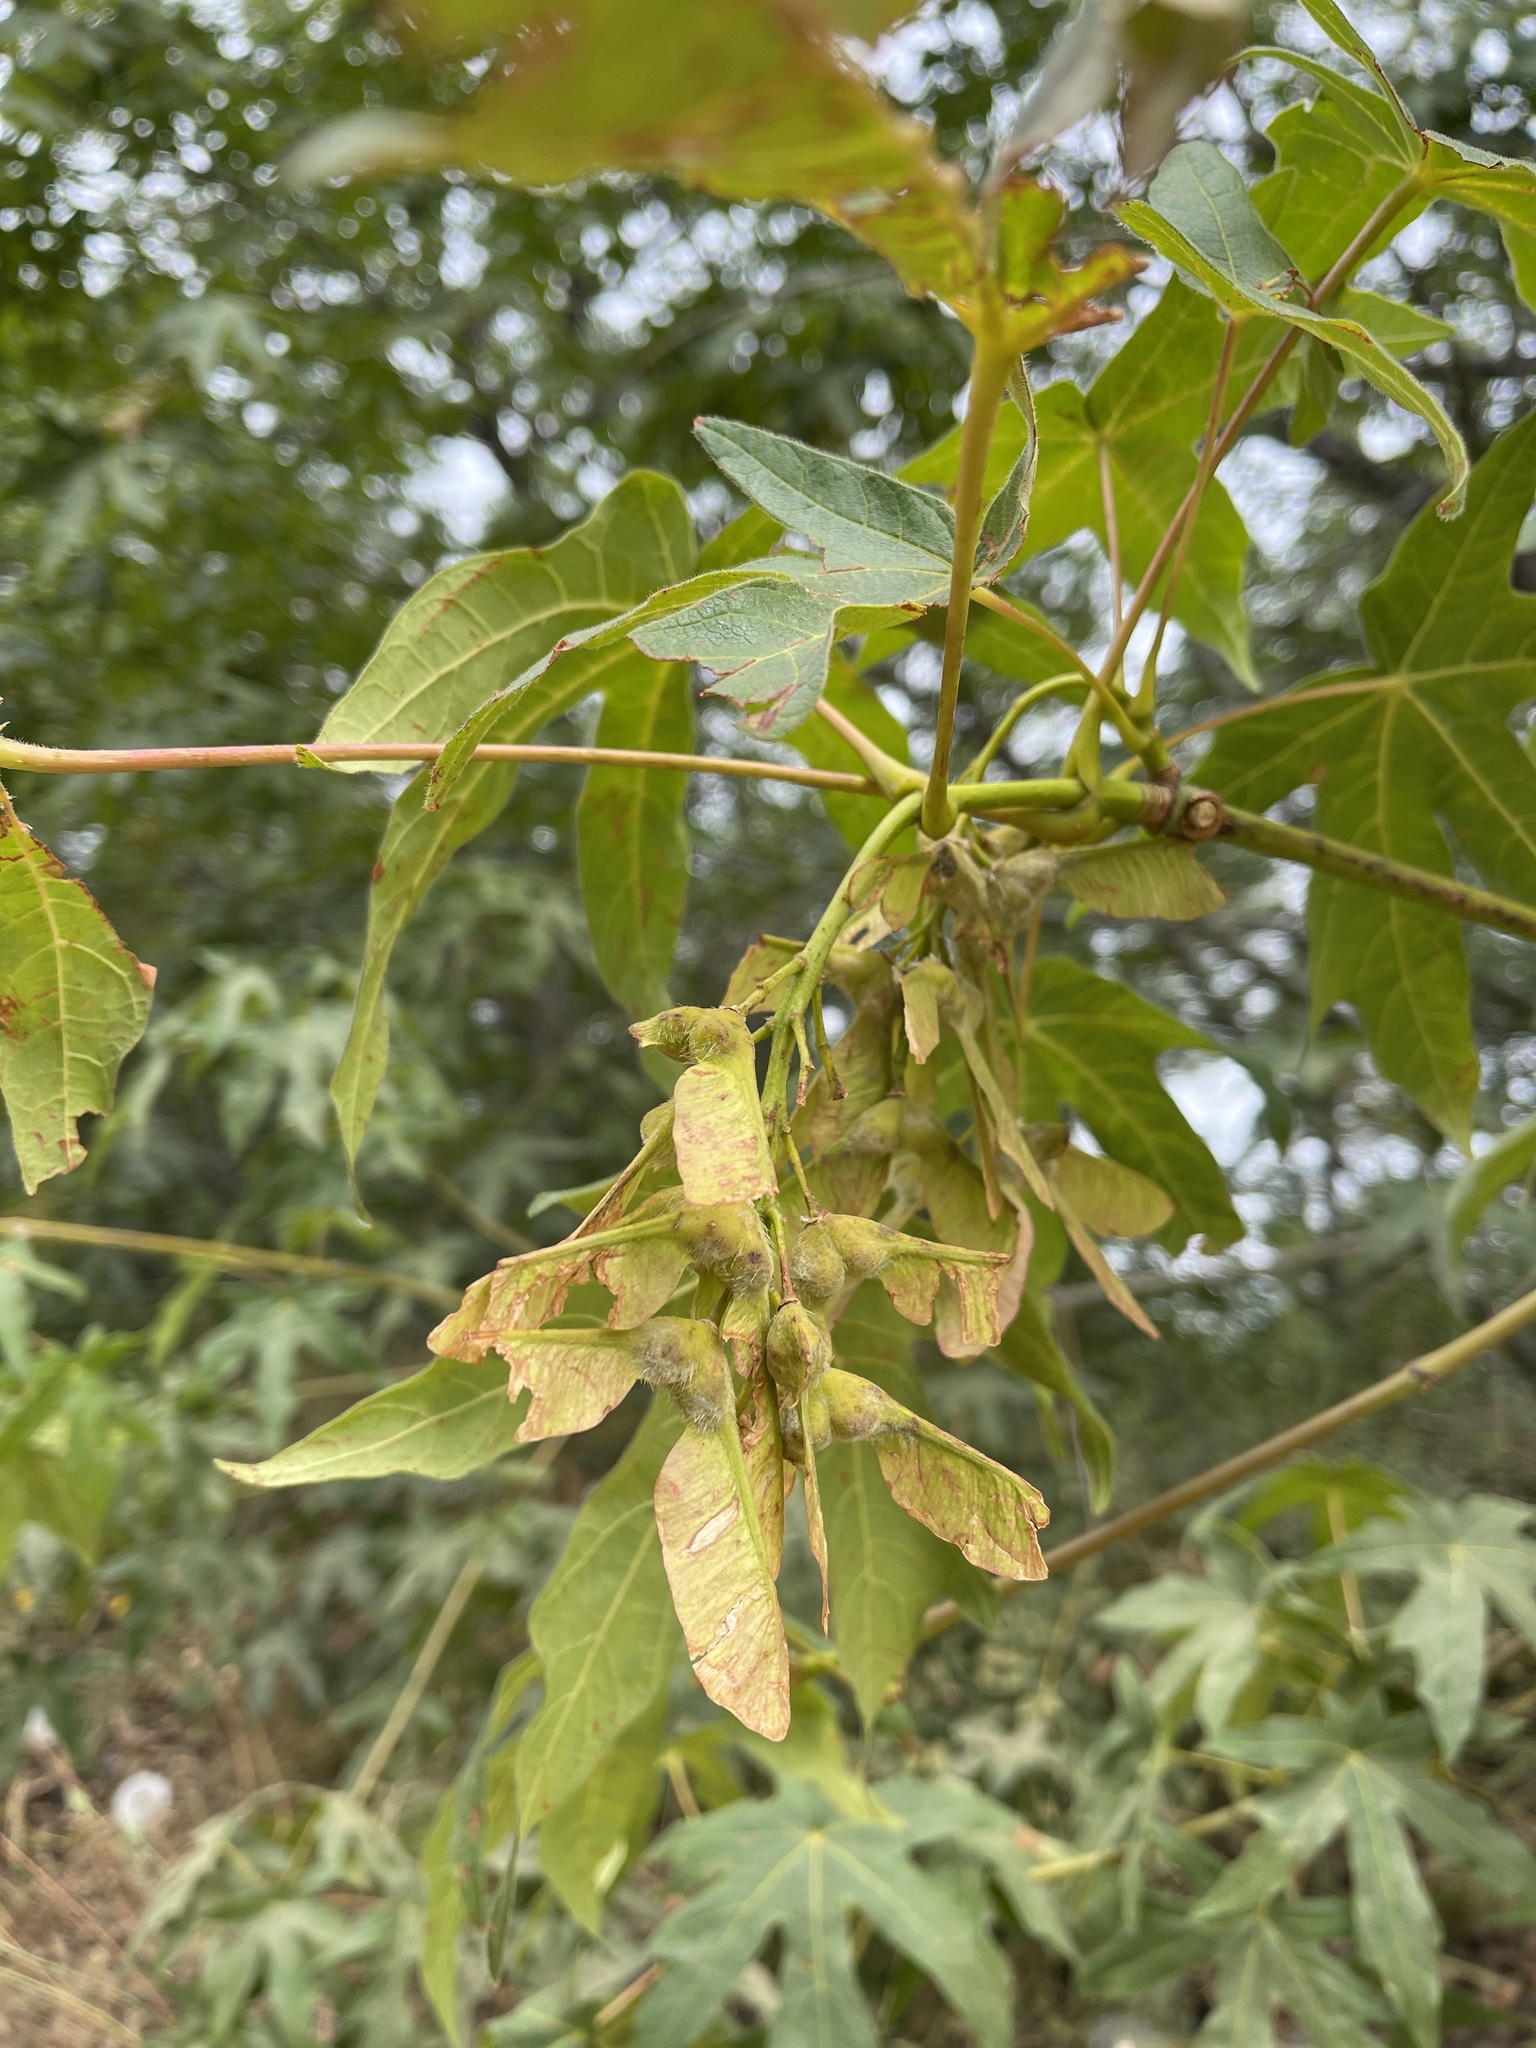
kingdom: Plantae
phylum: Tracheophyta
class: Magnoliopsida
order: Sapindales
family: Sapindaceae
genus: Acer
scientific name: Acer macrophyllum
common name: Oregon maple
